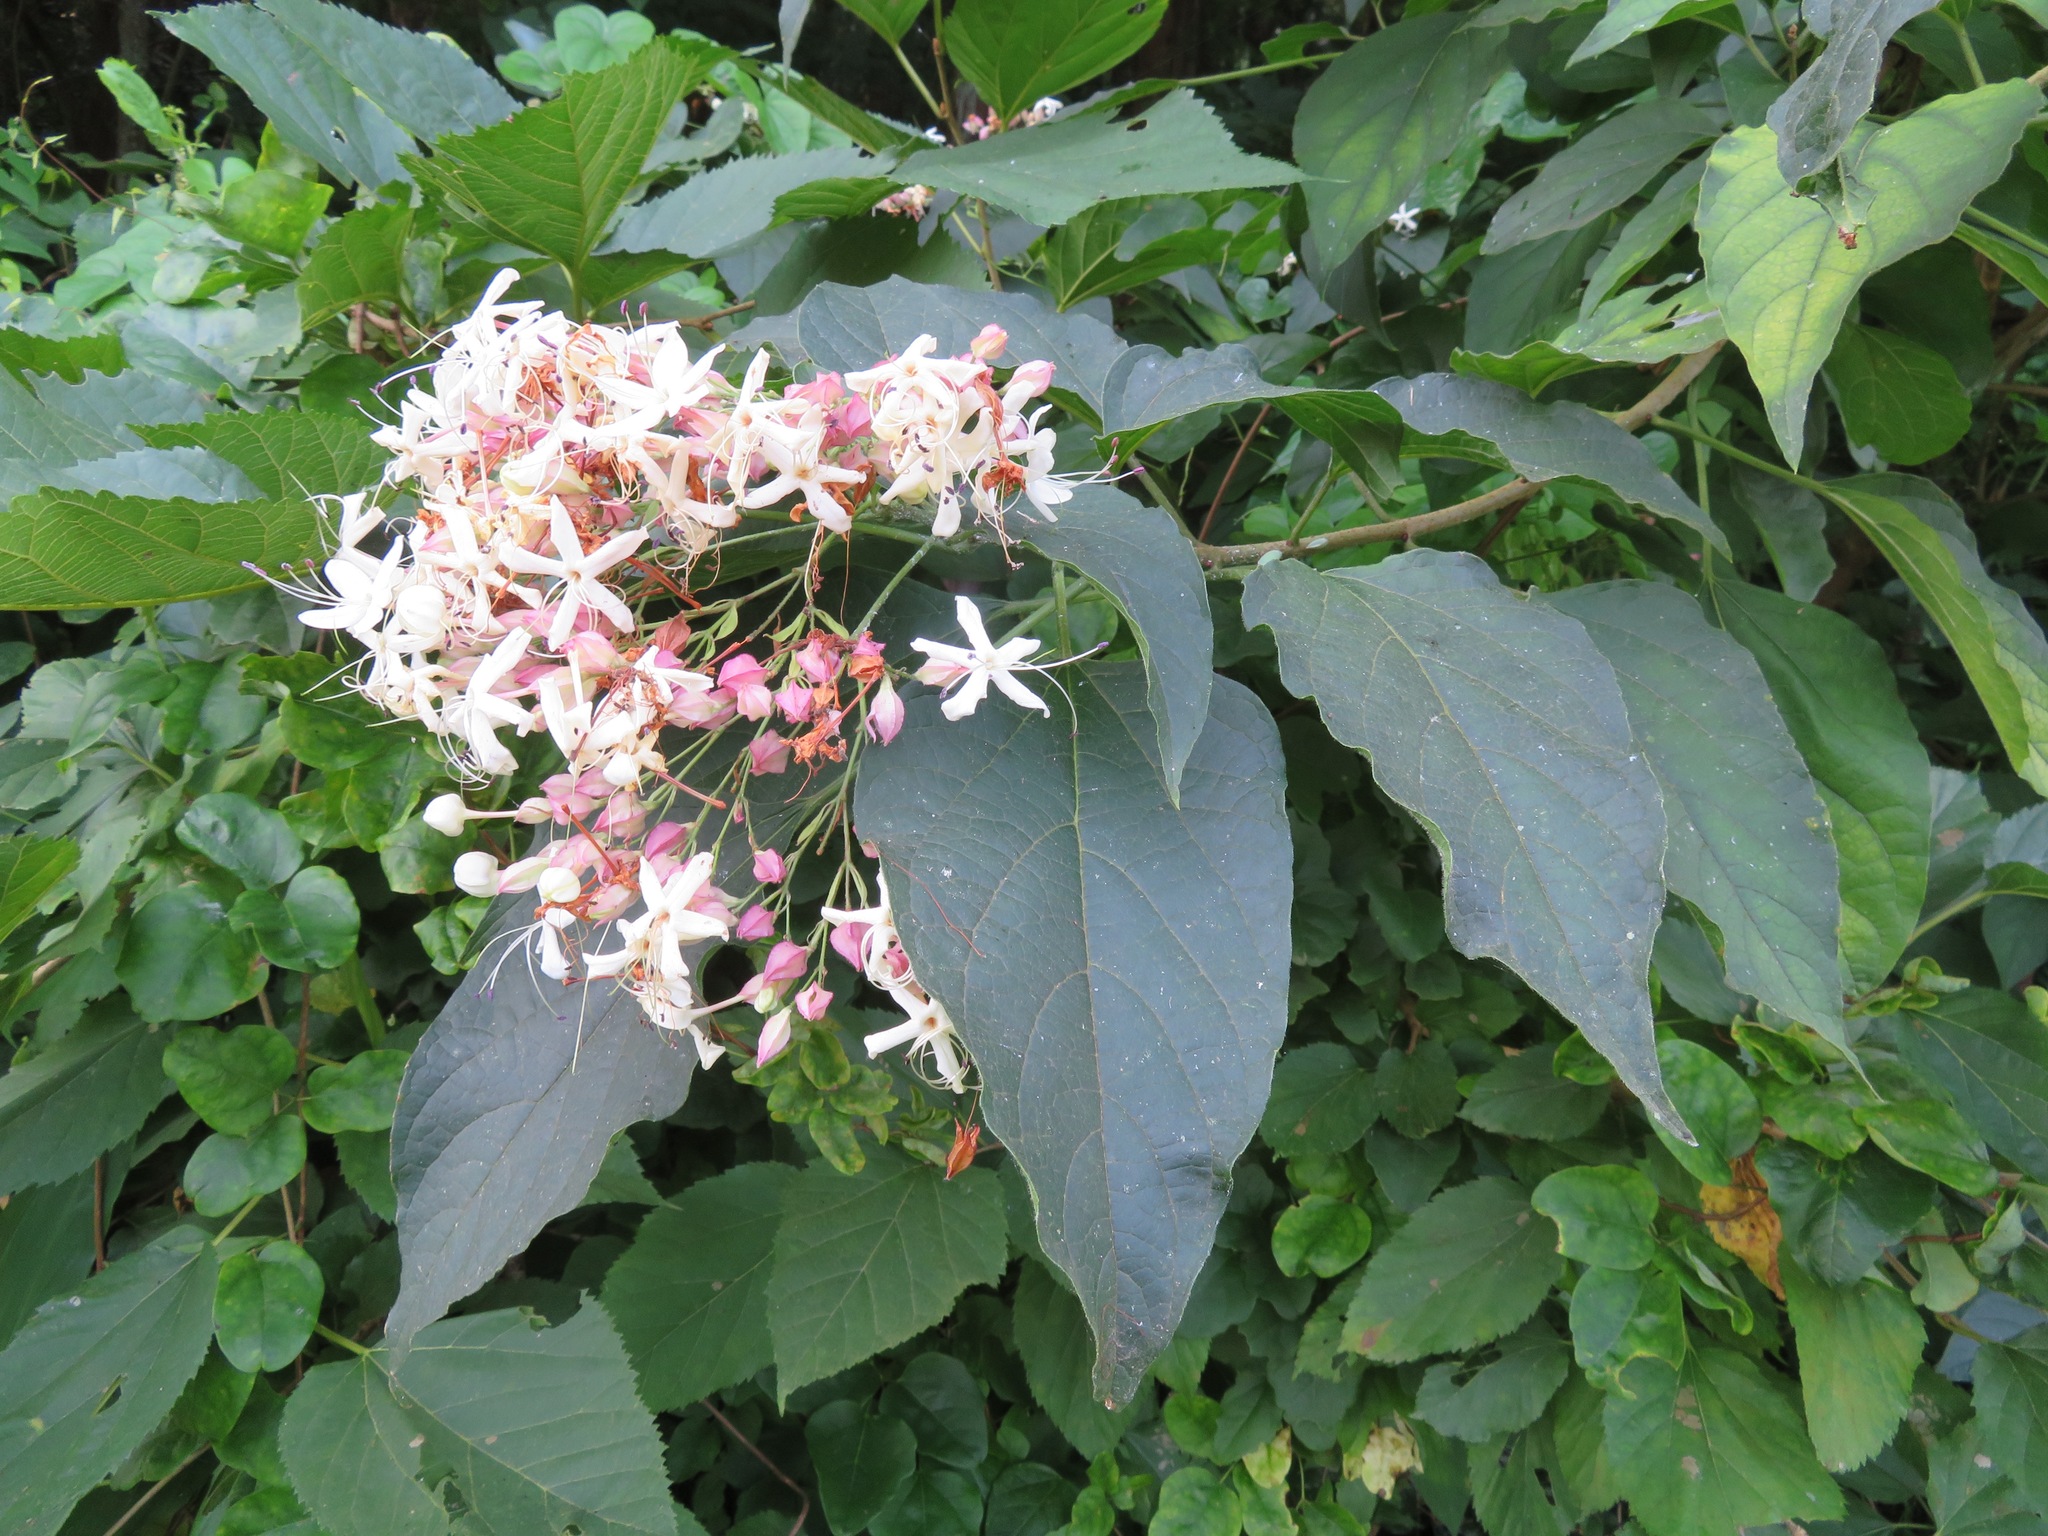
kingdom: Plantae
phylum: Tracheophyta
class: Magnoliopsida
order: Lamiales
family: Lamiaceae
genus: Clerodendrum
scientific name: Clerodendrum trichotomum
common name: Harlequin glorybower
